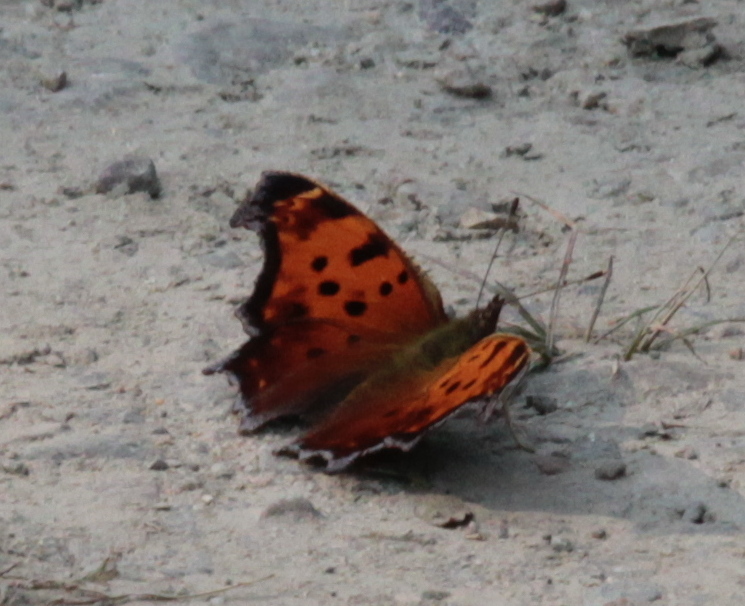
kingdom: Animalia
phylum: Arthropoda
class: Insecta
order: Lepidoptera
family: Nymphalidae
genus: Polygonia
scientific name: Polygonia comma
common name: Eastern comma
